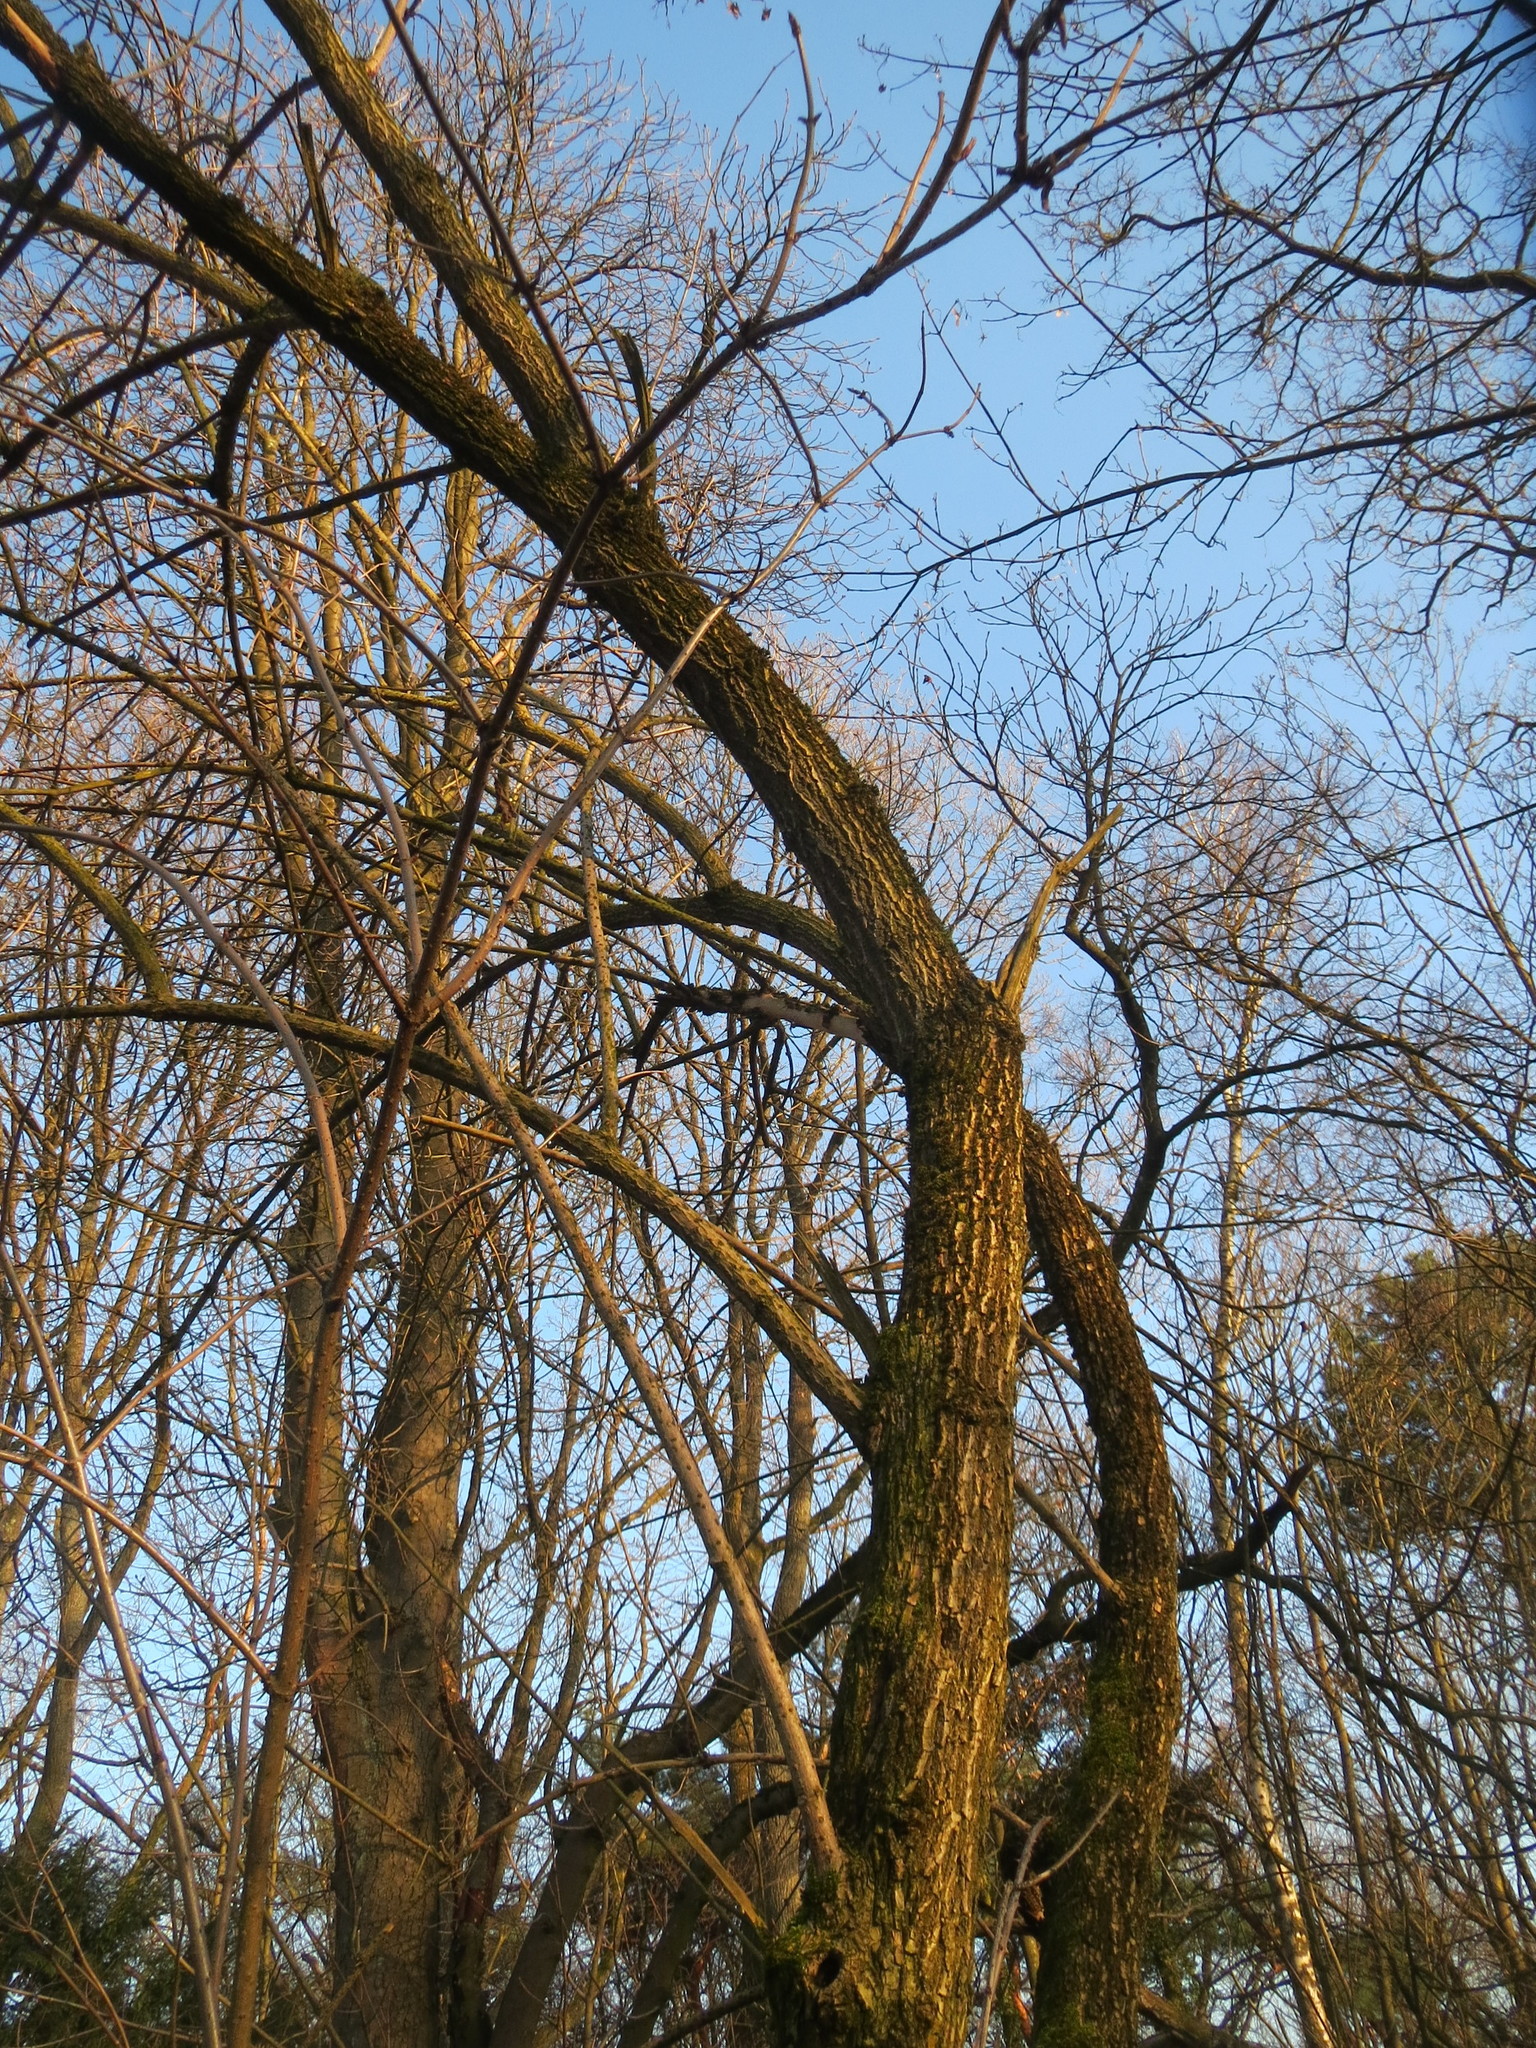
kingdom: Plantae
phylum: Tracheophyta
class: Magnoliopsida
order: Dipsacales
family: Viburnaceae
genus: Sambucus
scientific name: Sambucus nigra
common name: Elder
